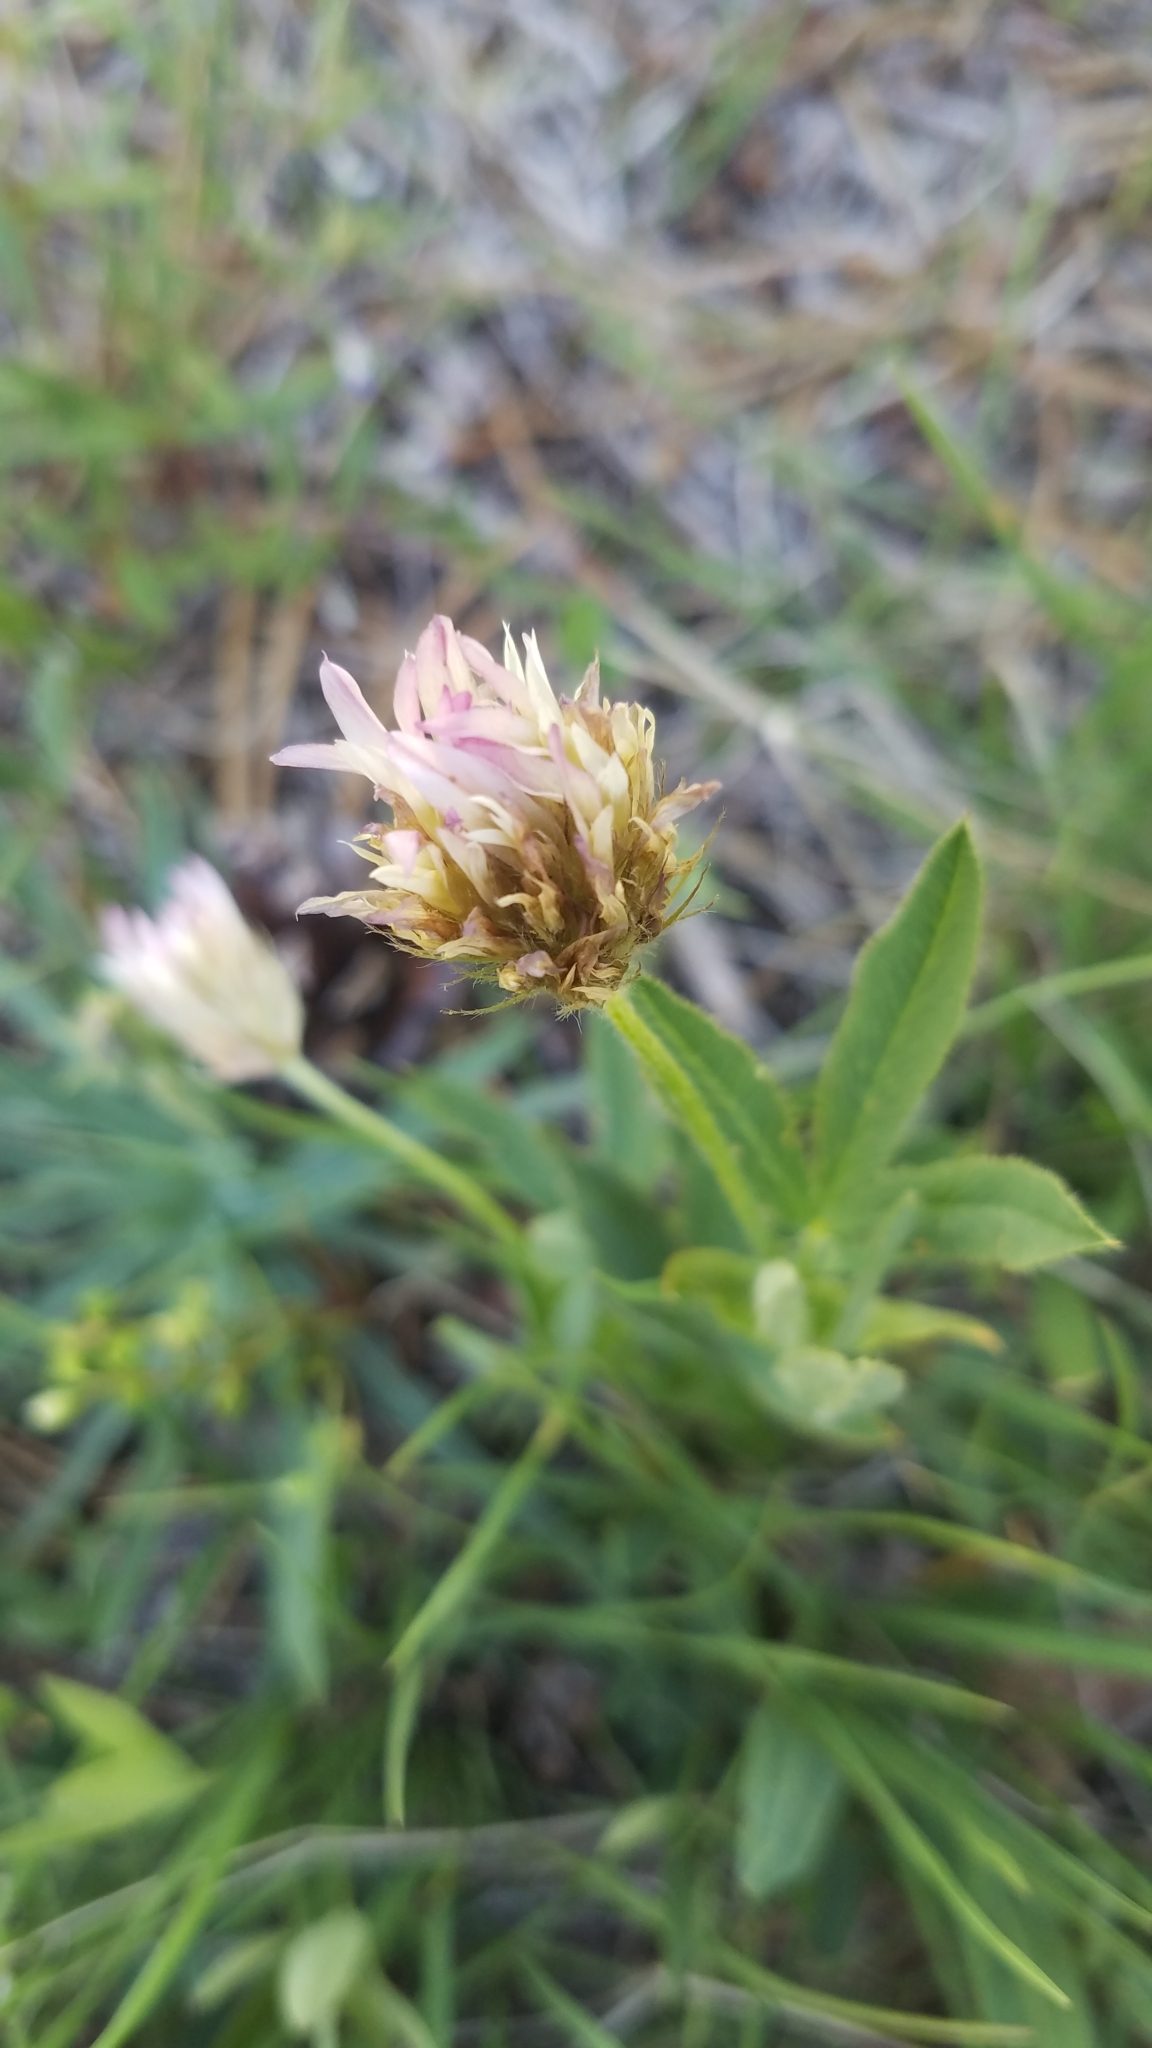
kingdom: Plantae
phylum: Tracheophyta
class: Magnoliopsida
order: Fabales
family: Fabaceae
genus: Trifolium
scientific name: Trifolium longipes
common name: Long-stalk clover
